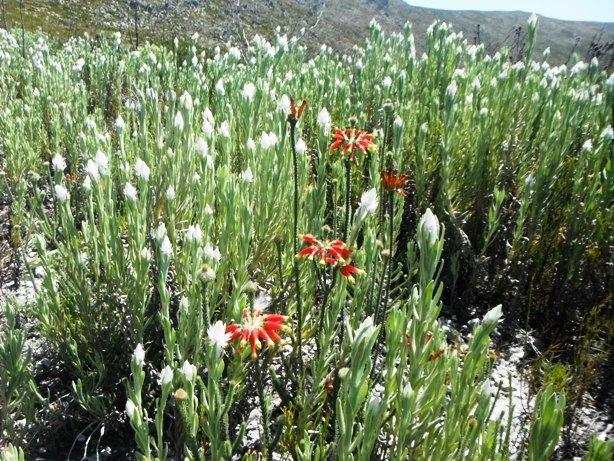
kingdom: Plantae
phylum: Tracheophyta
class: Magnoliopsida
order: Ericales
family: Ericaceae
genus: Erica
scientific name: Erica massonii
